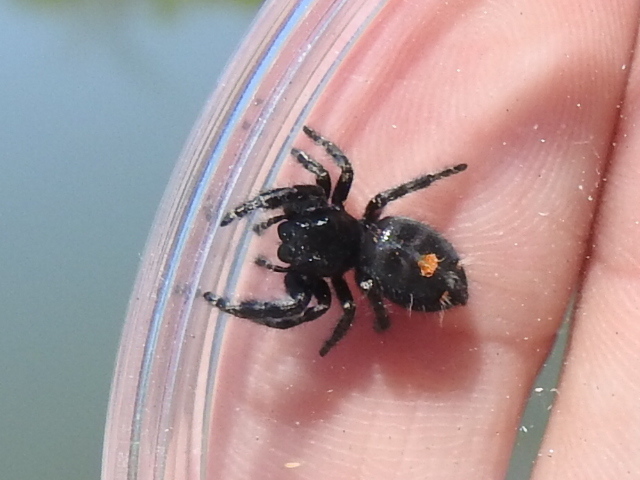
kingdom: Animalia
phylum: Arthropoda
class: Arachnida
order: Araneae
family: Salticidae
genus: Phidippus
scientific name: Phidippus audax
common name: Bold jumper
